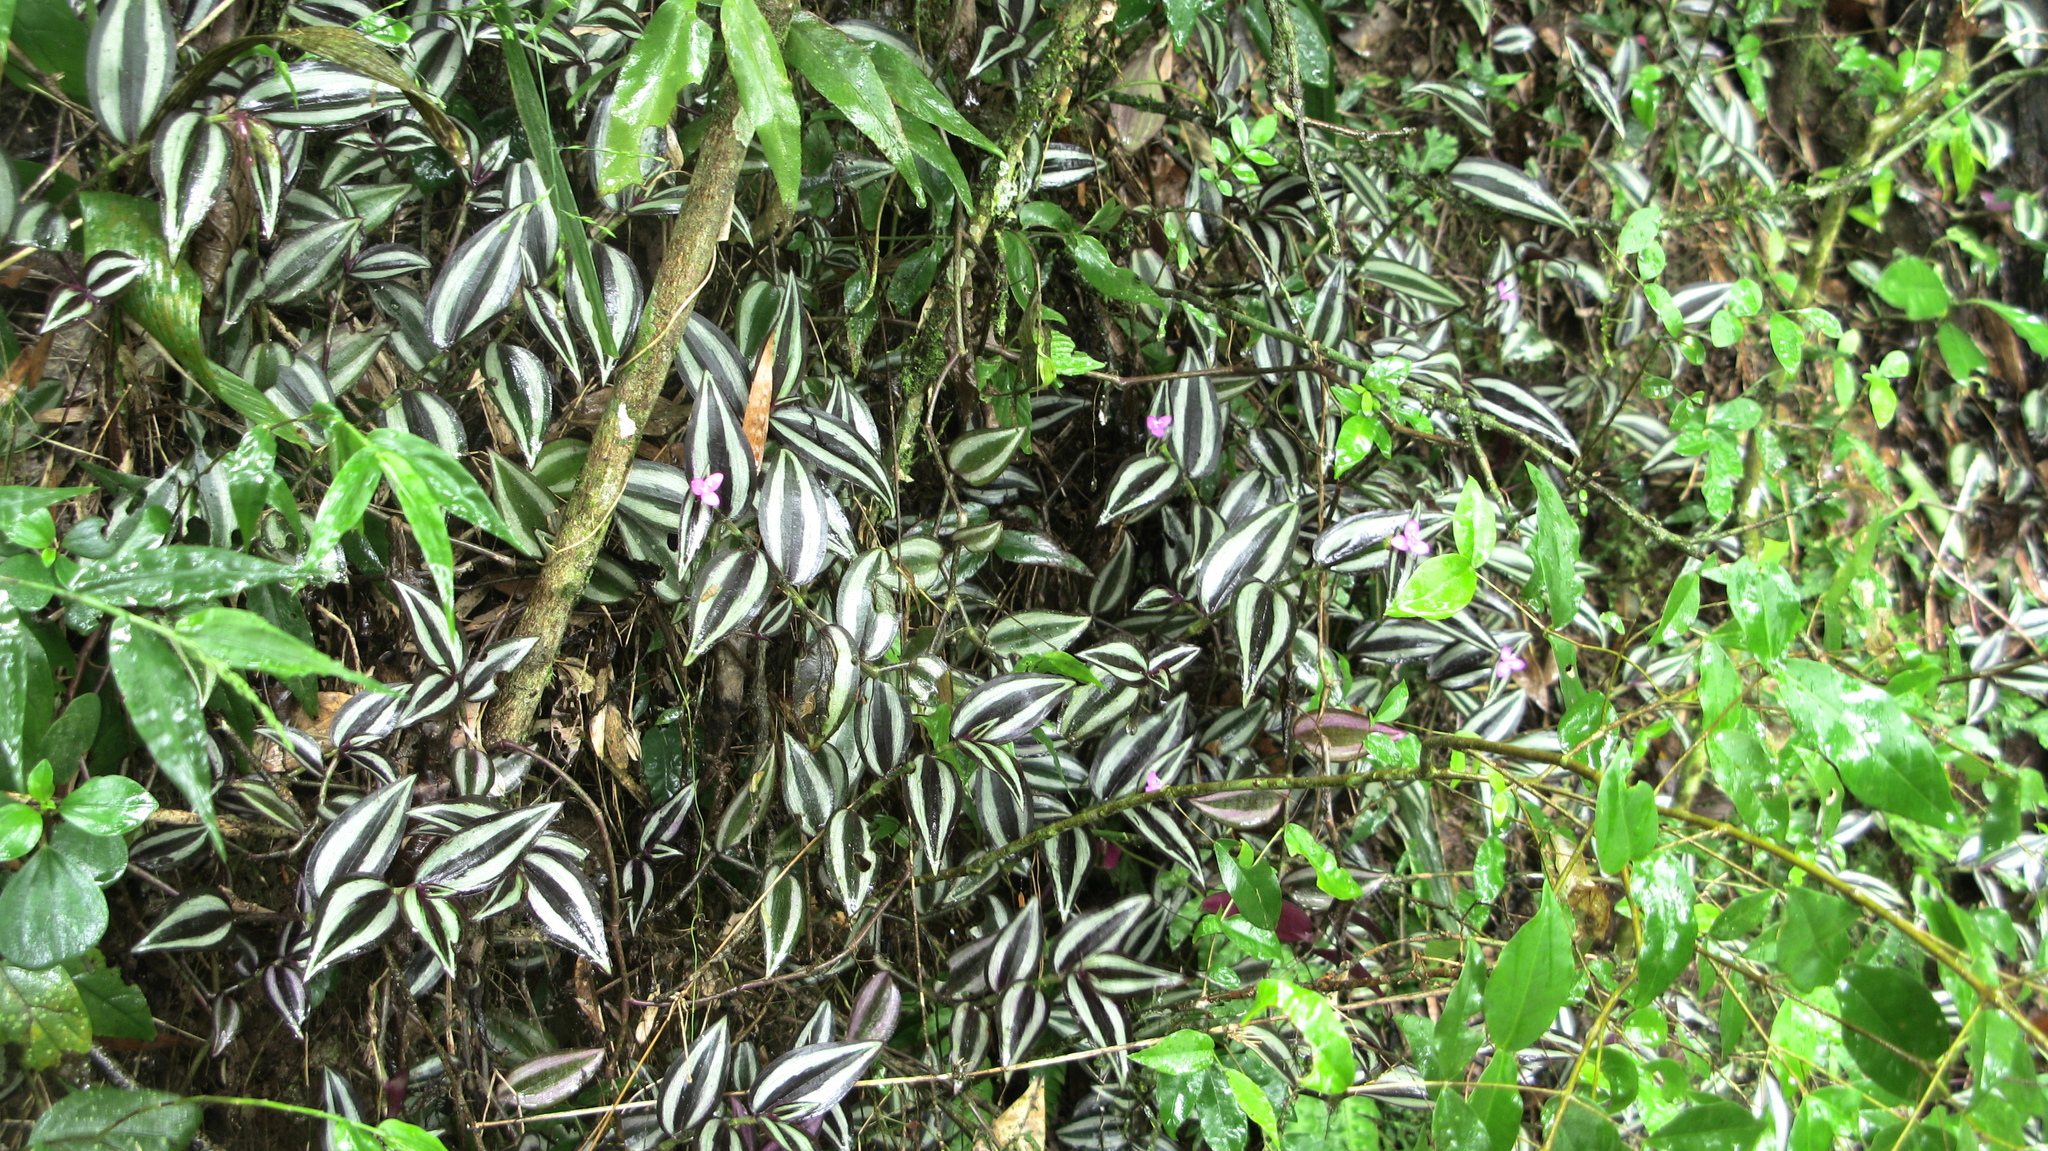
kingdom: Plantae
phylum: Tracheophyta
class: Liliopsida
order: Commelinales
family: Commelinaceae
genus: Tradescantia
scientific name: Tradescantia zebrina
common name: Inchplant
